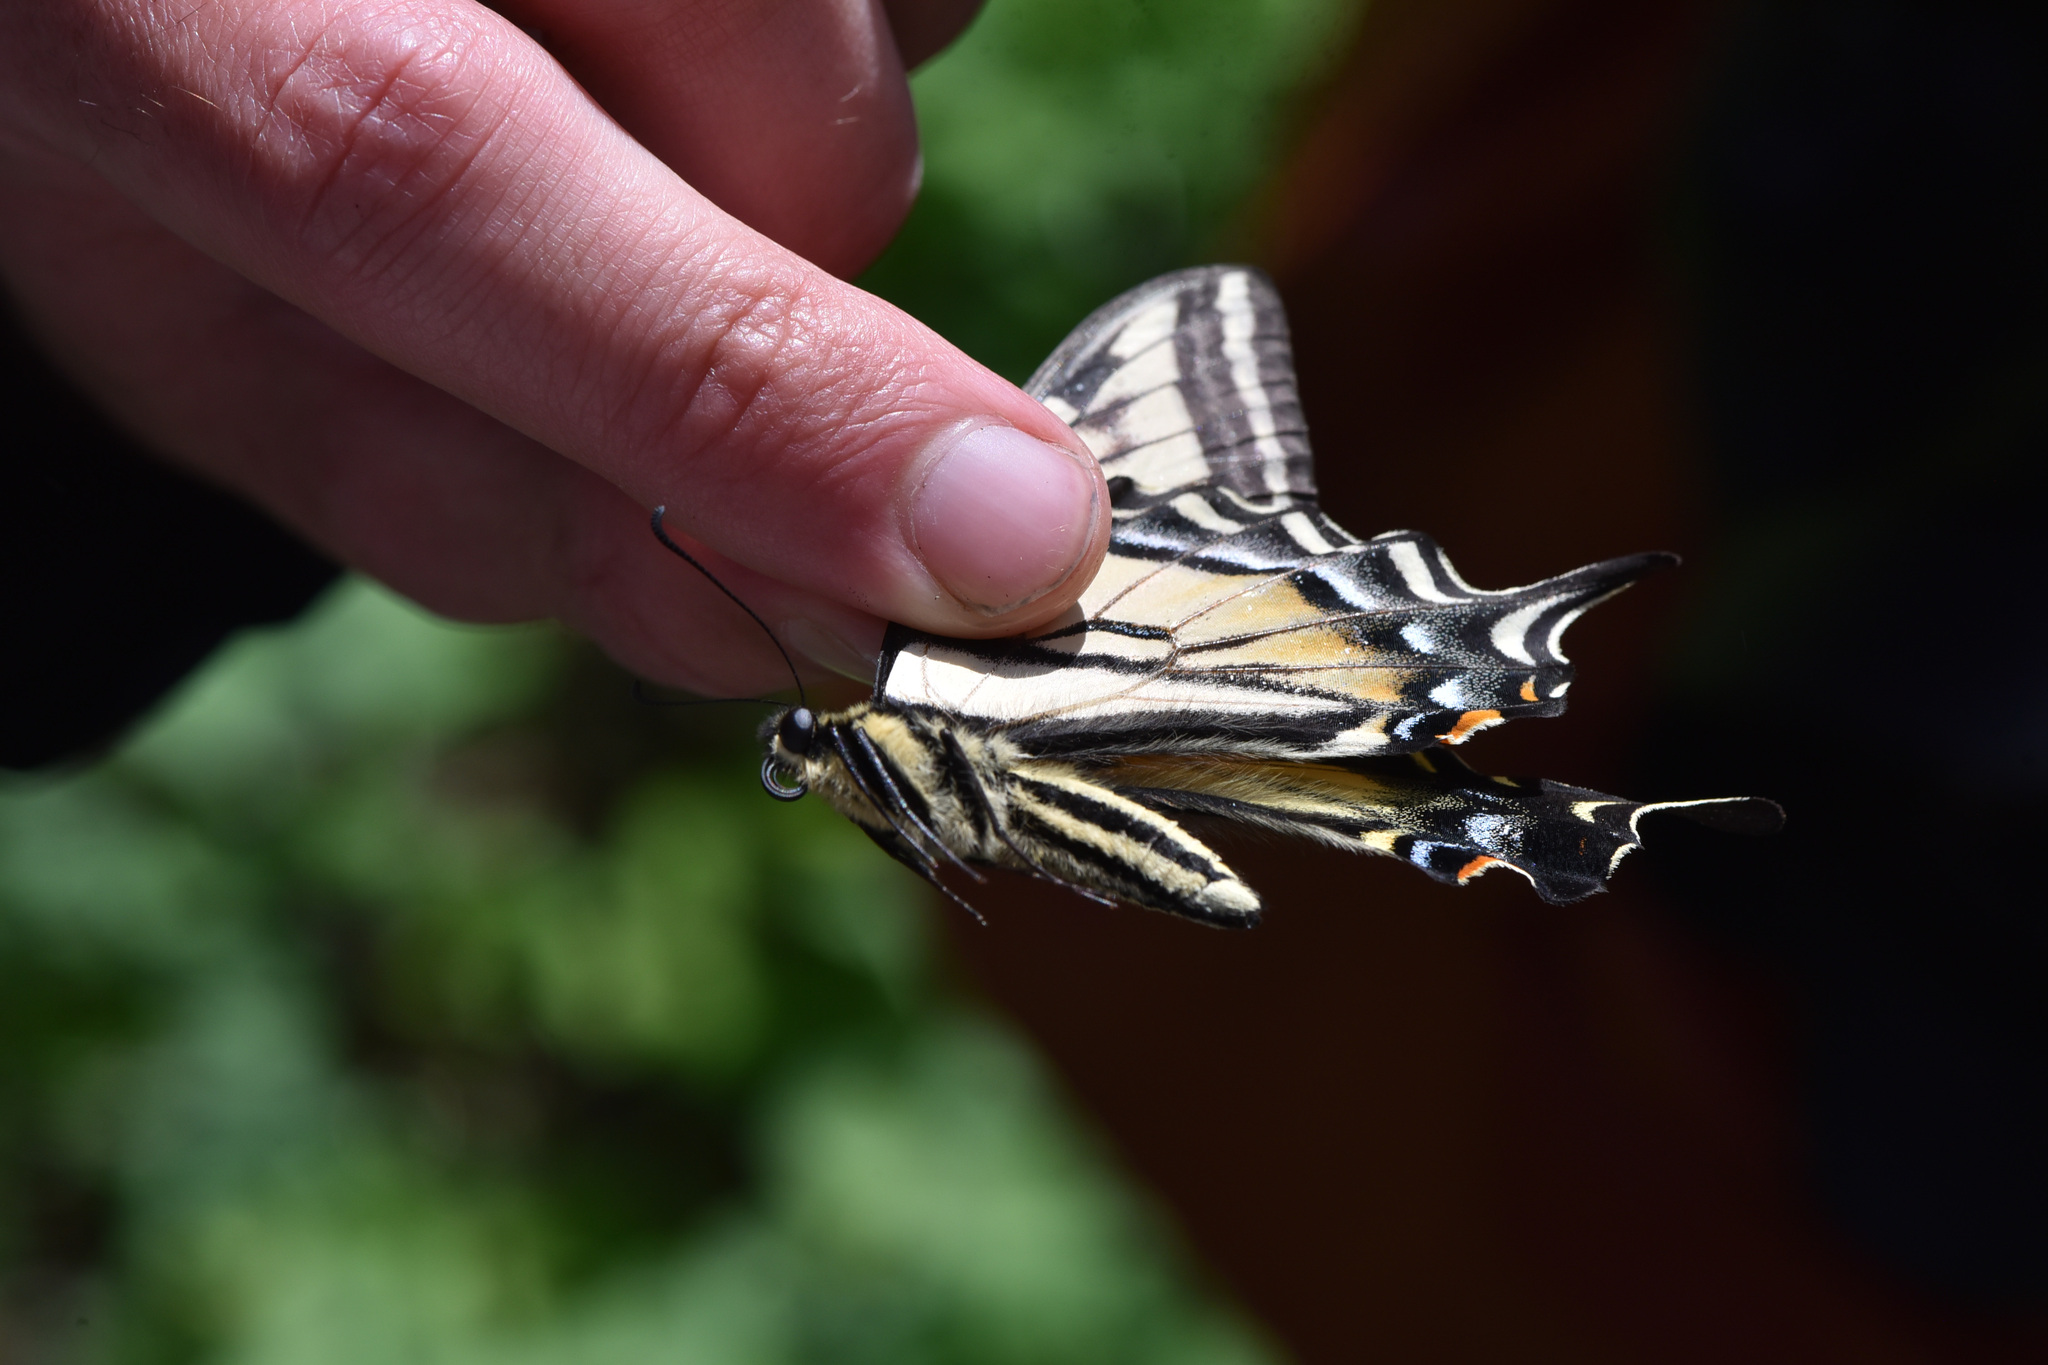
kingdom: Animalia
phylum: Arthropoda
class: Insecta
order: Lepidoptera
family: Papilionidae
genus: Papilio
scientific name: Papilio rutulus
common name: Western tiger swallowtail
